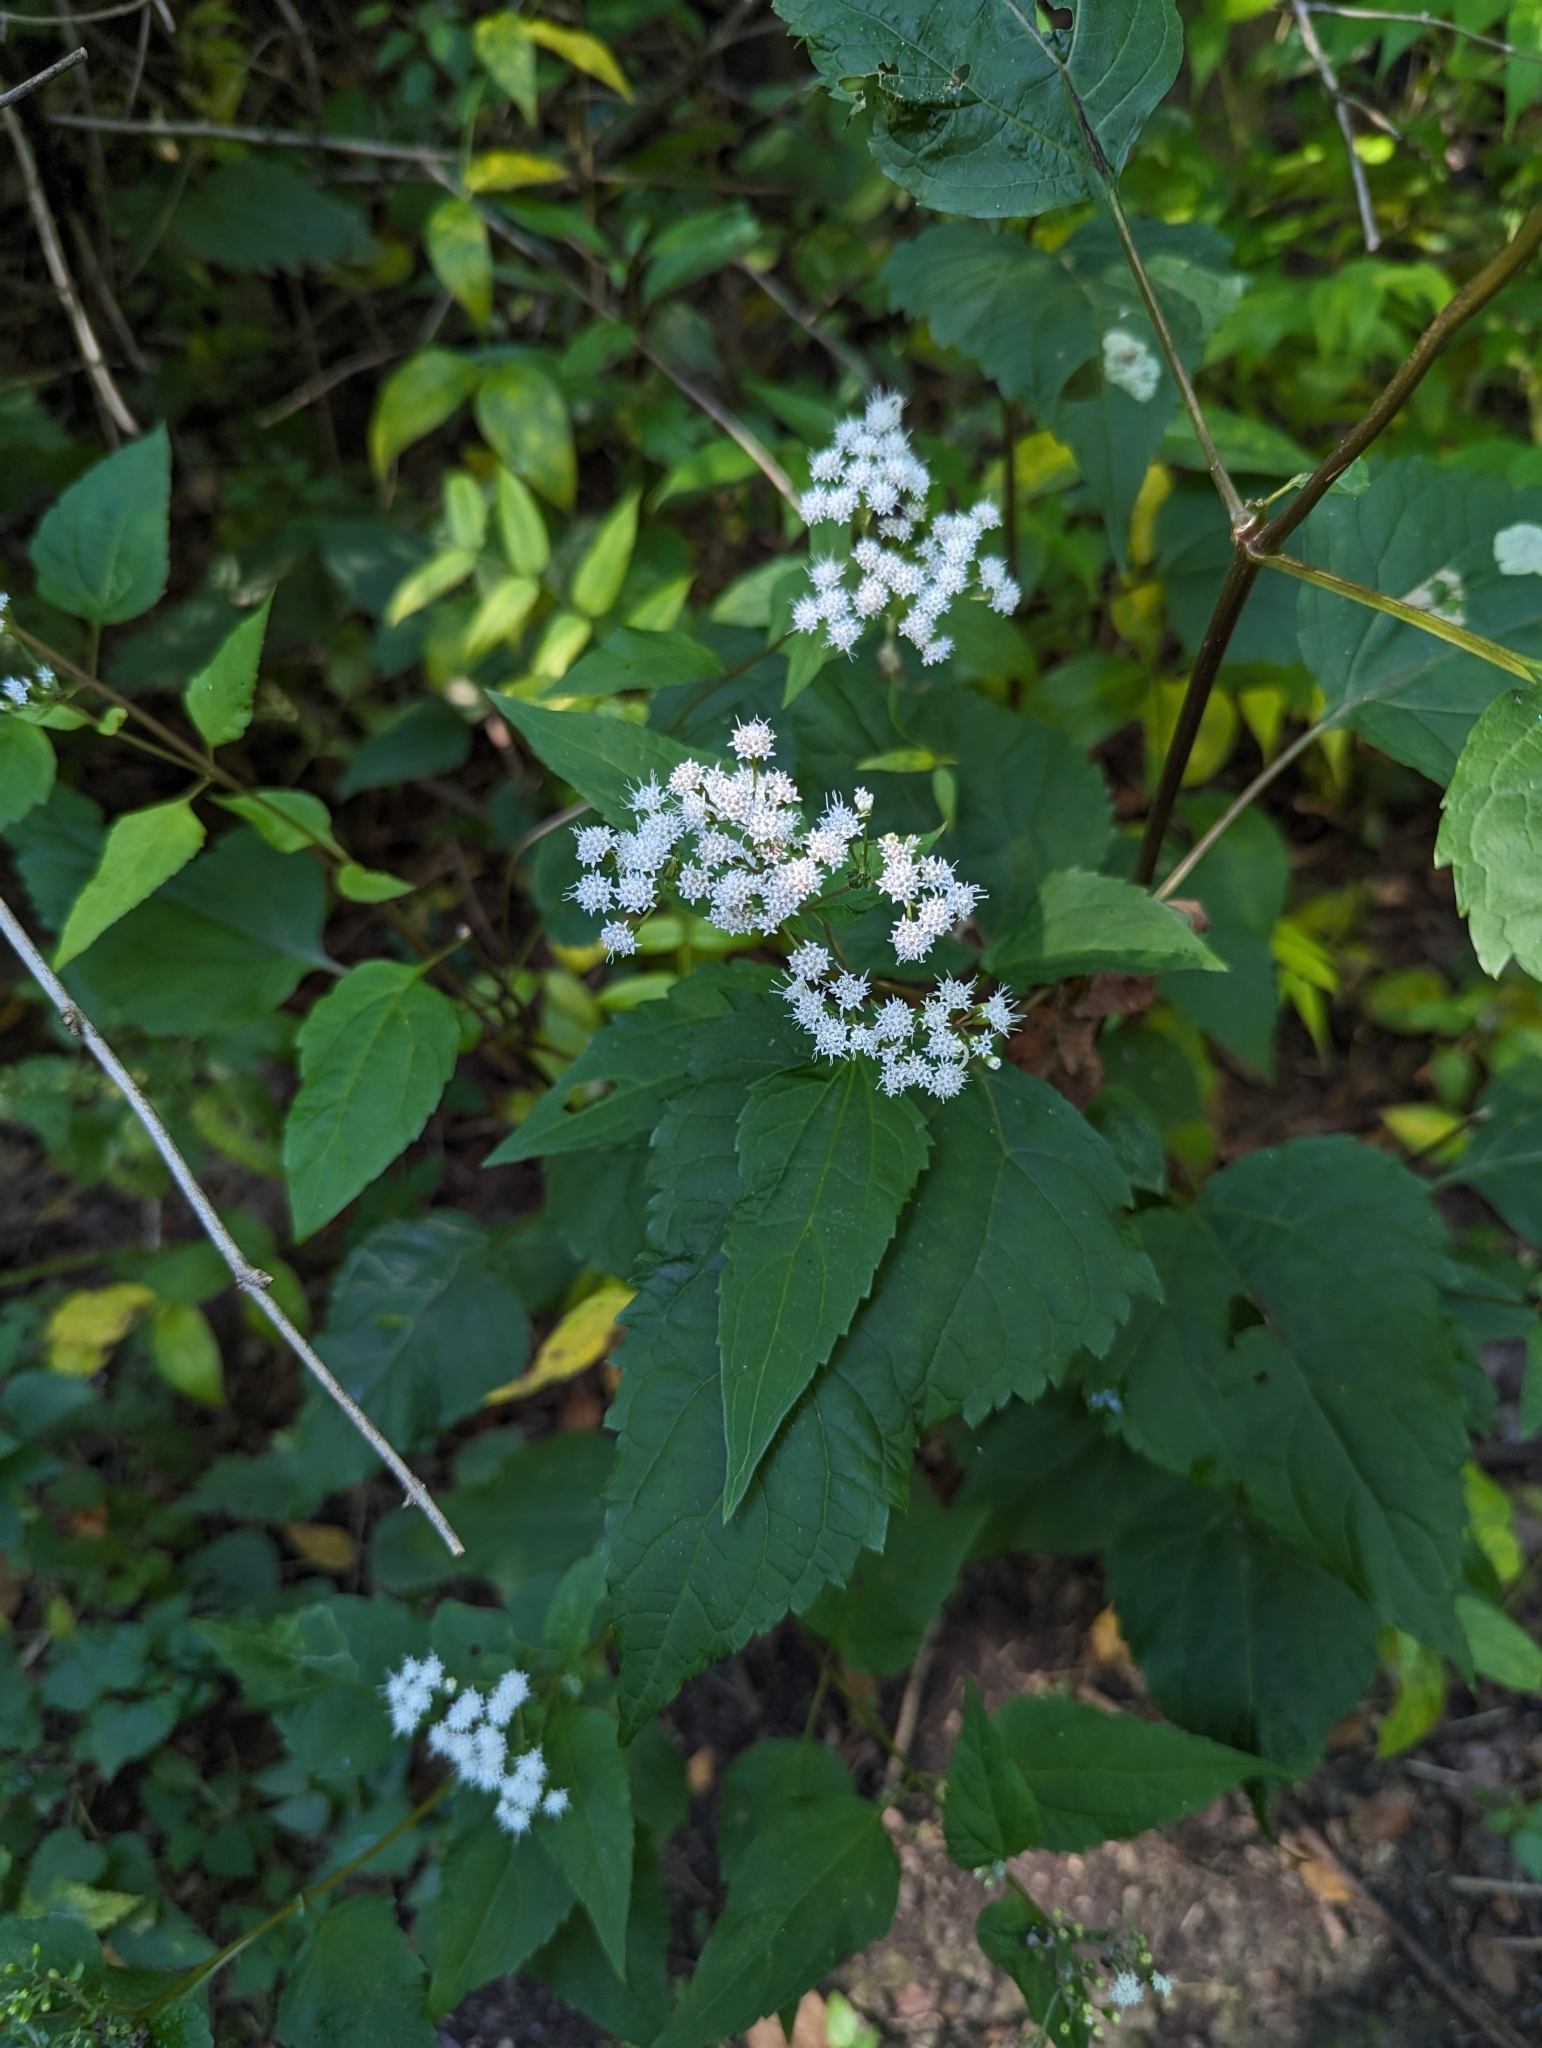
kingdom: Plantae
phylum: Tracheophyta
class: Magnoliopsida
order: Asterales
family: Asteraceae
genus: Ageratina
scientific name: Ageratina altissima
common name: White snakeroot
